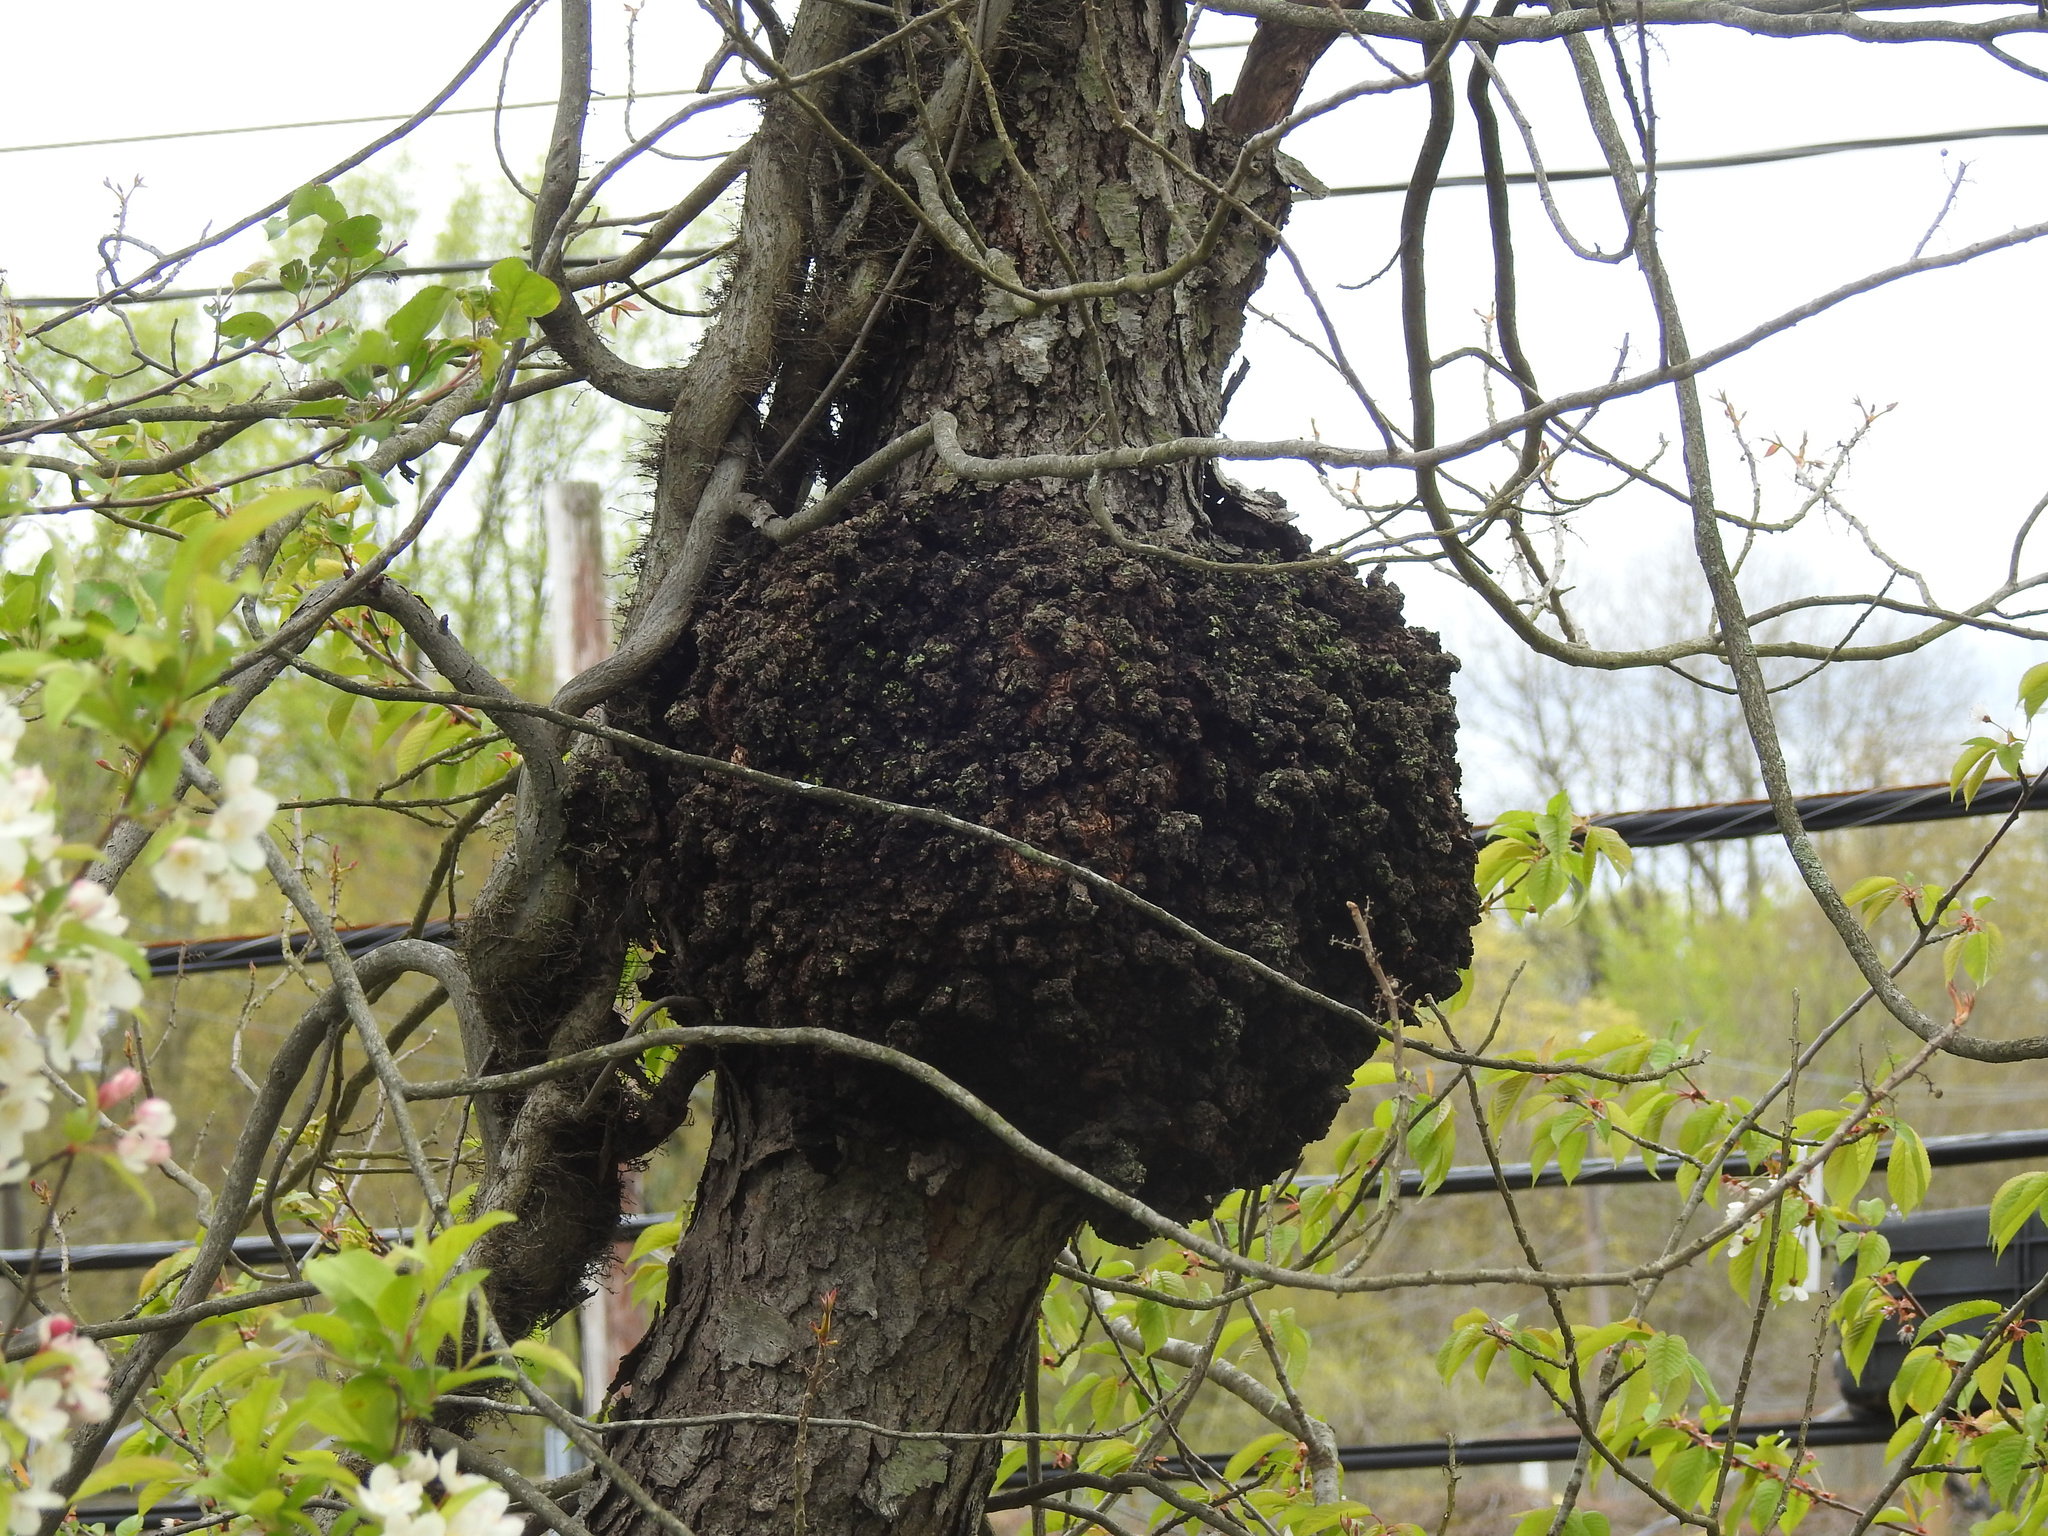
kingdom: Bacteria
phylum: Proteobacteria
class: Alphaproteobacteria
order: Rhizobiales
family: Rhizobiaceae
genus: Rhizobium
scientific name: Rhizobium Agrobacterium radiobacter
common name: Bacterial crown gall
